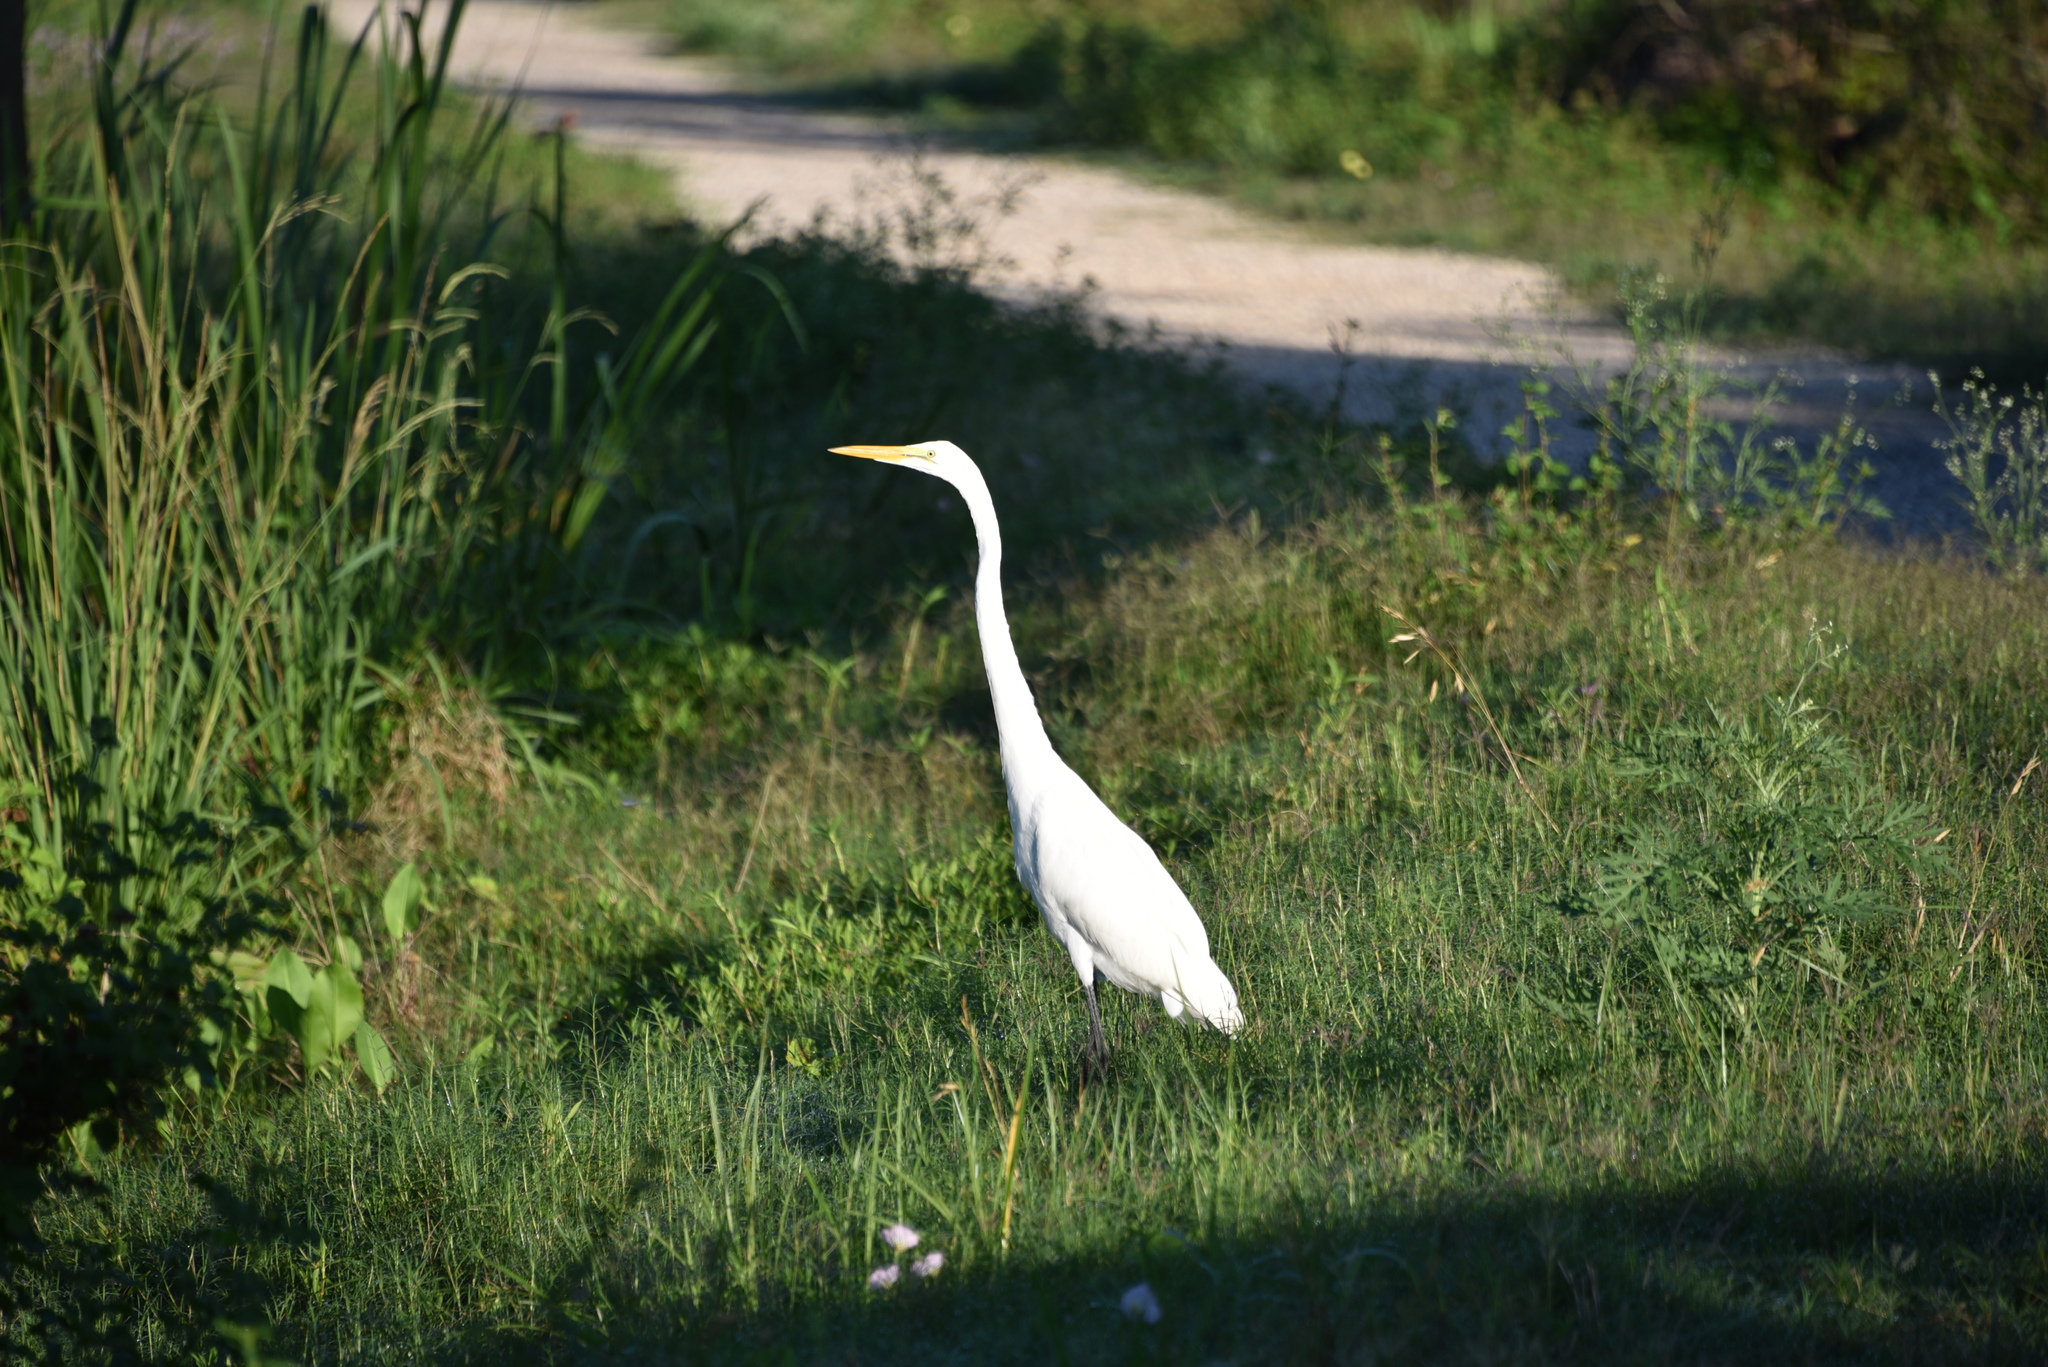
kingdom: Animalia
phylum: Chordata
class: Aves
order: Pelecaniformes
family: Ardeidae
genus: Ardea
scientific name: Ardea alba
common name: Great egret
